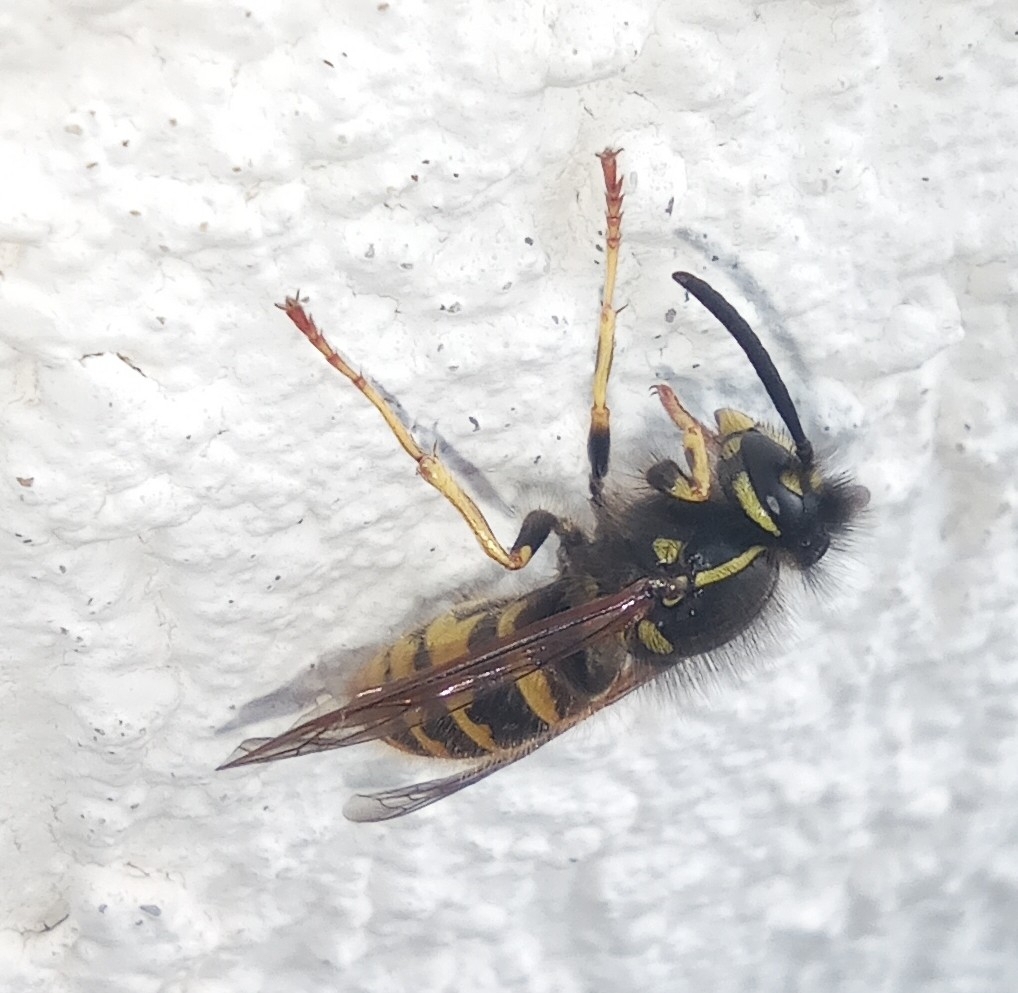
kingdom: Animalia
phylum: Arthropoda
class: Insecta
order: Hymenoptera
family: Vespidae
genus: Vespula
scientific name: Vespula vulgaris
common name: Common wasp
